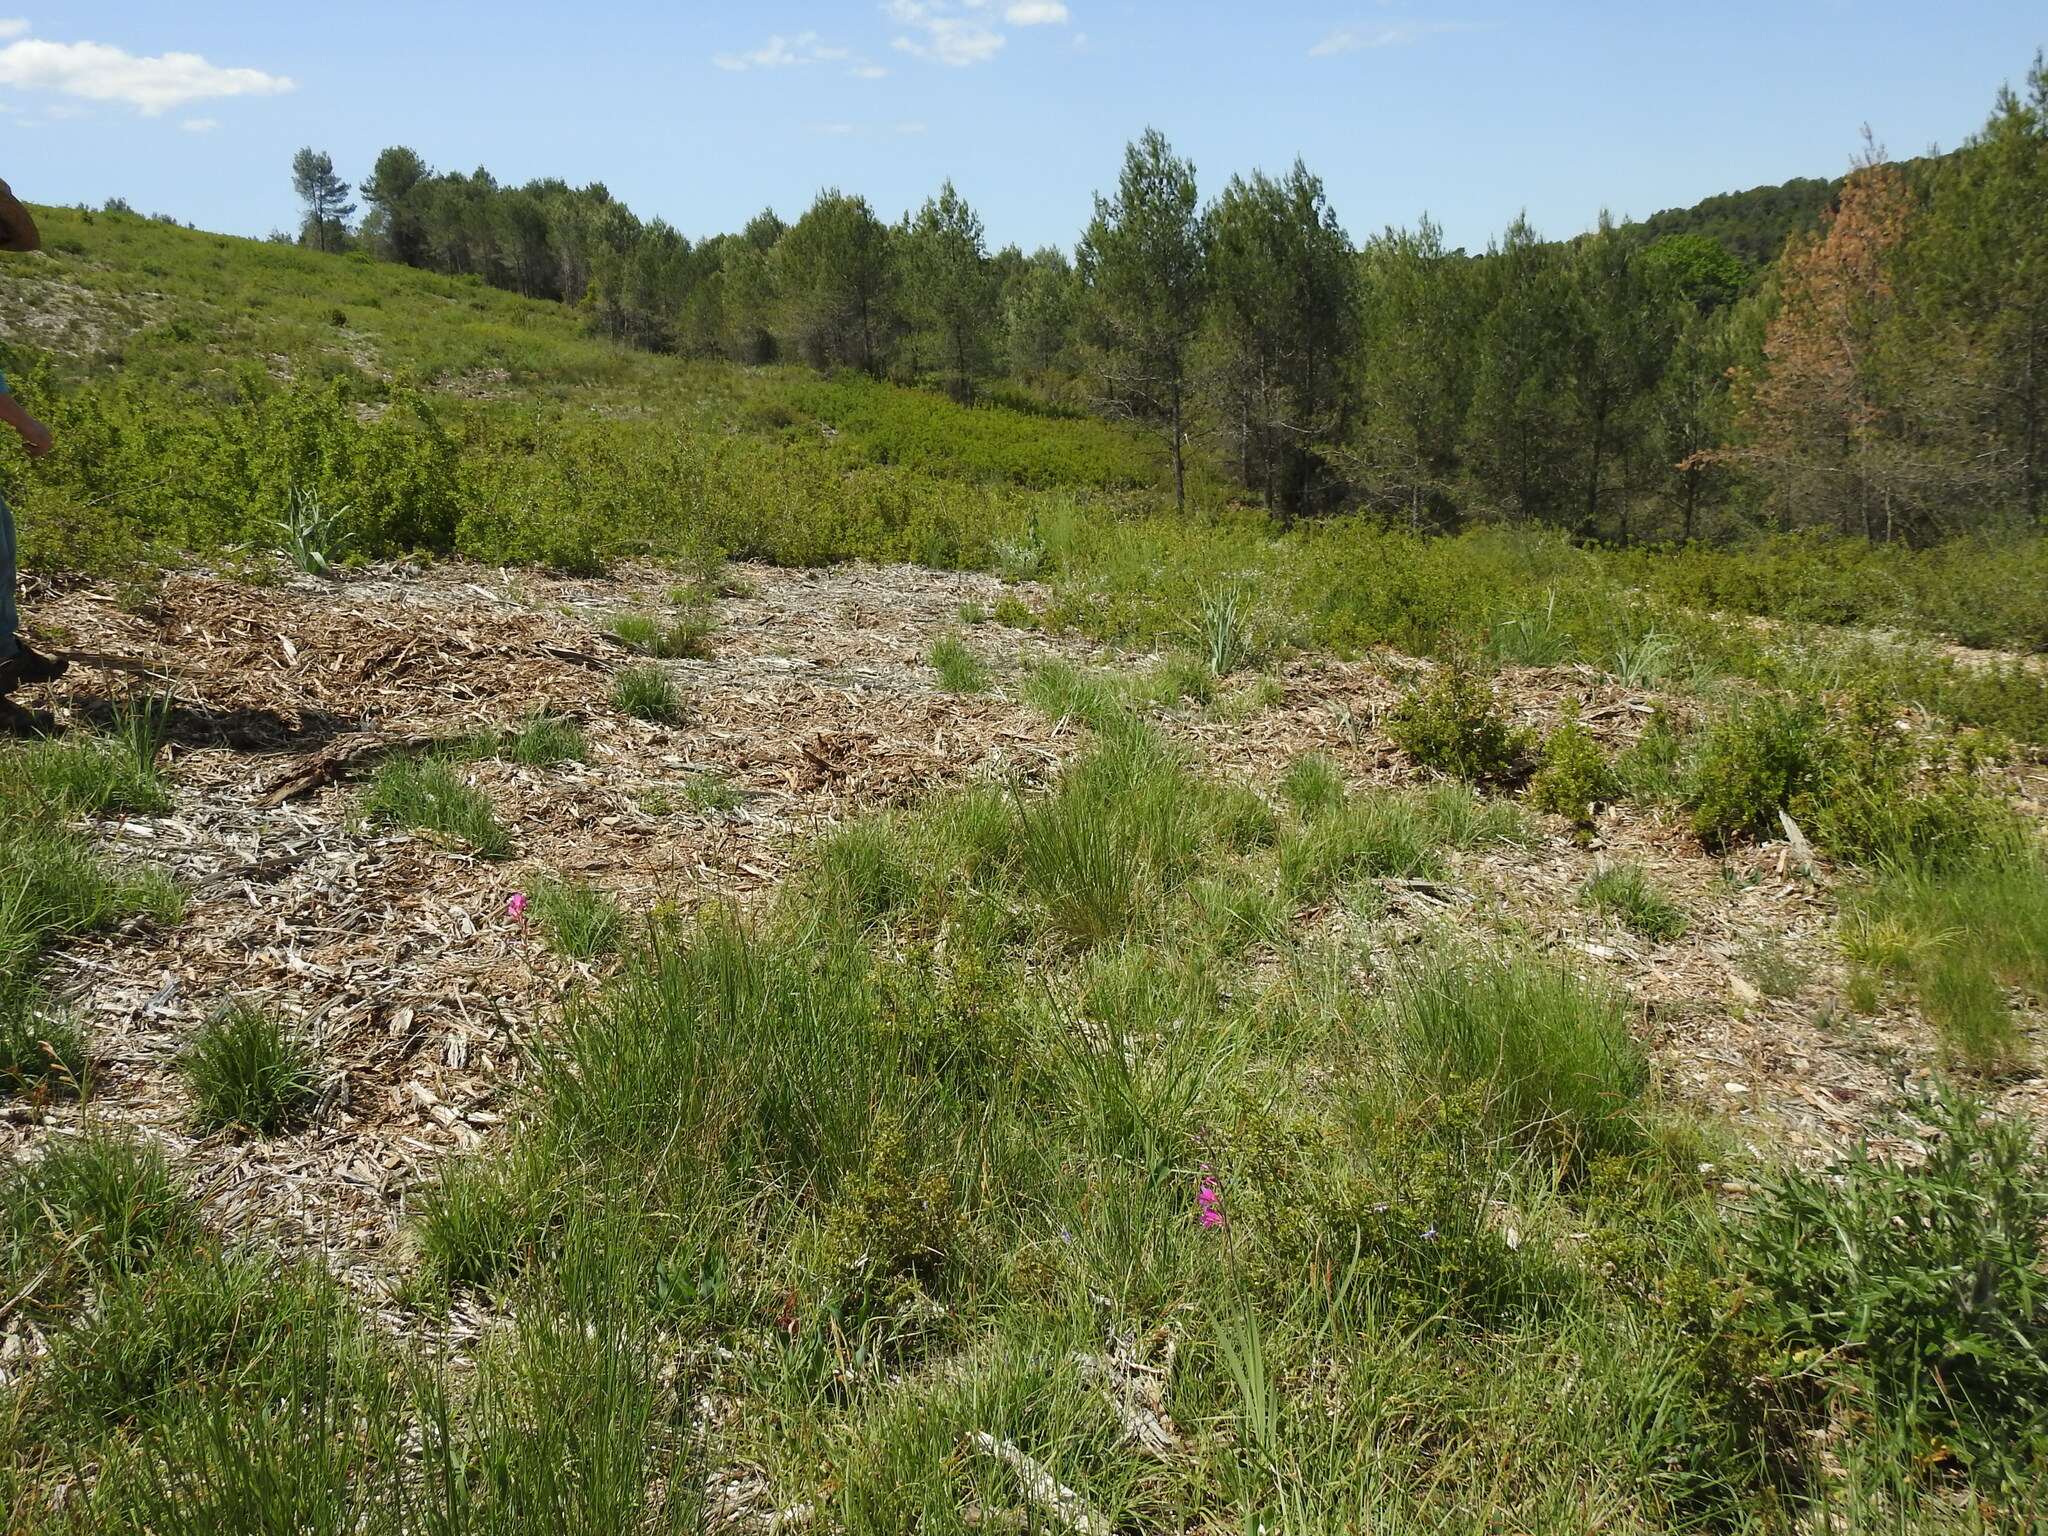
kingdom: Plantae
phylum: Tracheophyta
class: Liliopsida
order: Asparagales
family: Iridaceae
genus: Gladiolus
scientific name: Gladiolus dubius
